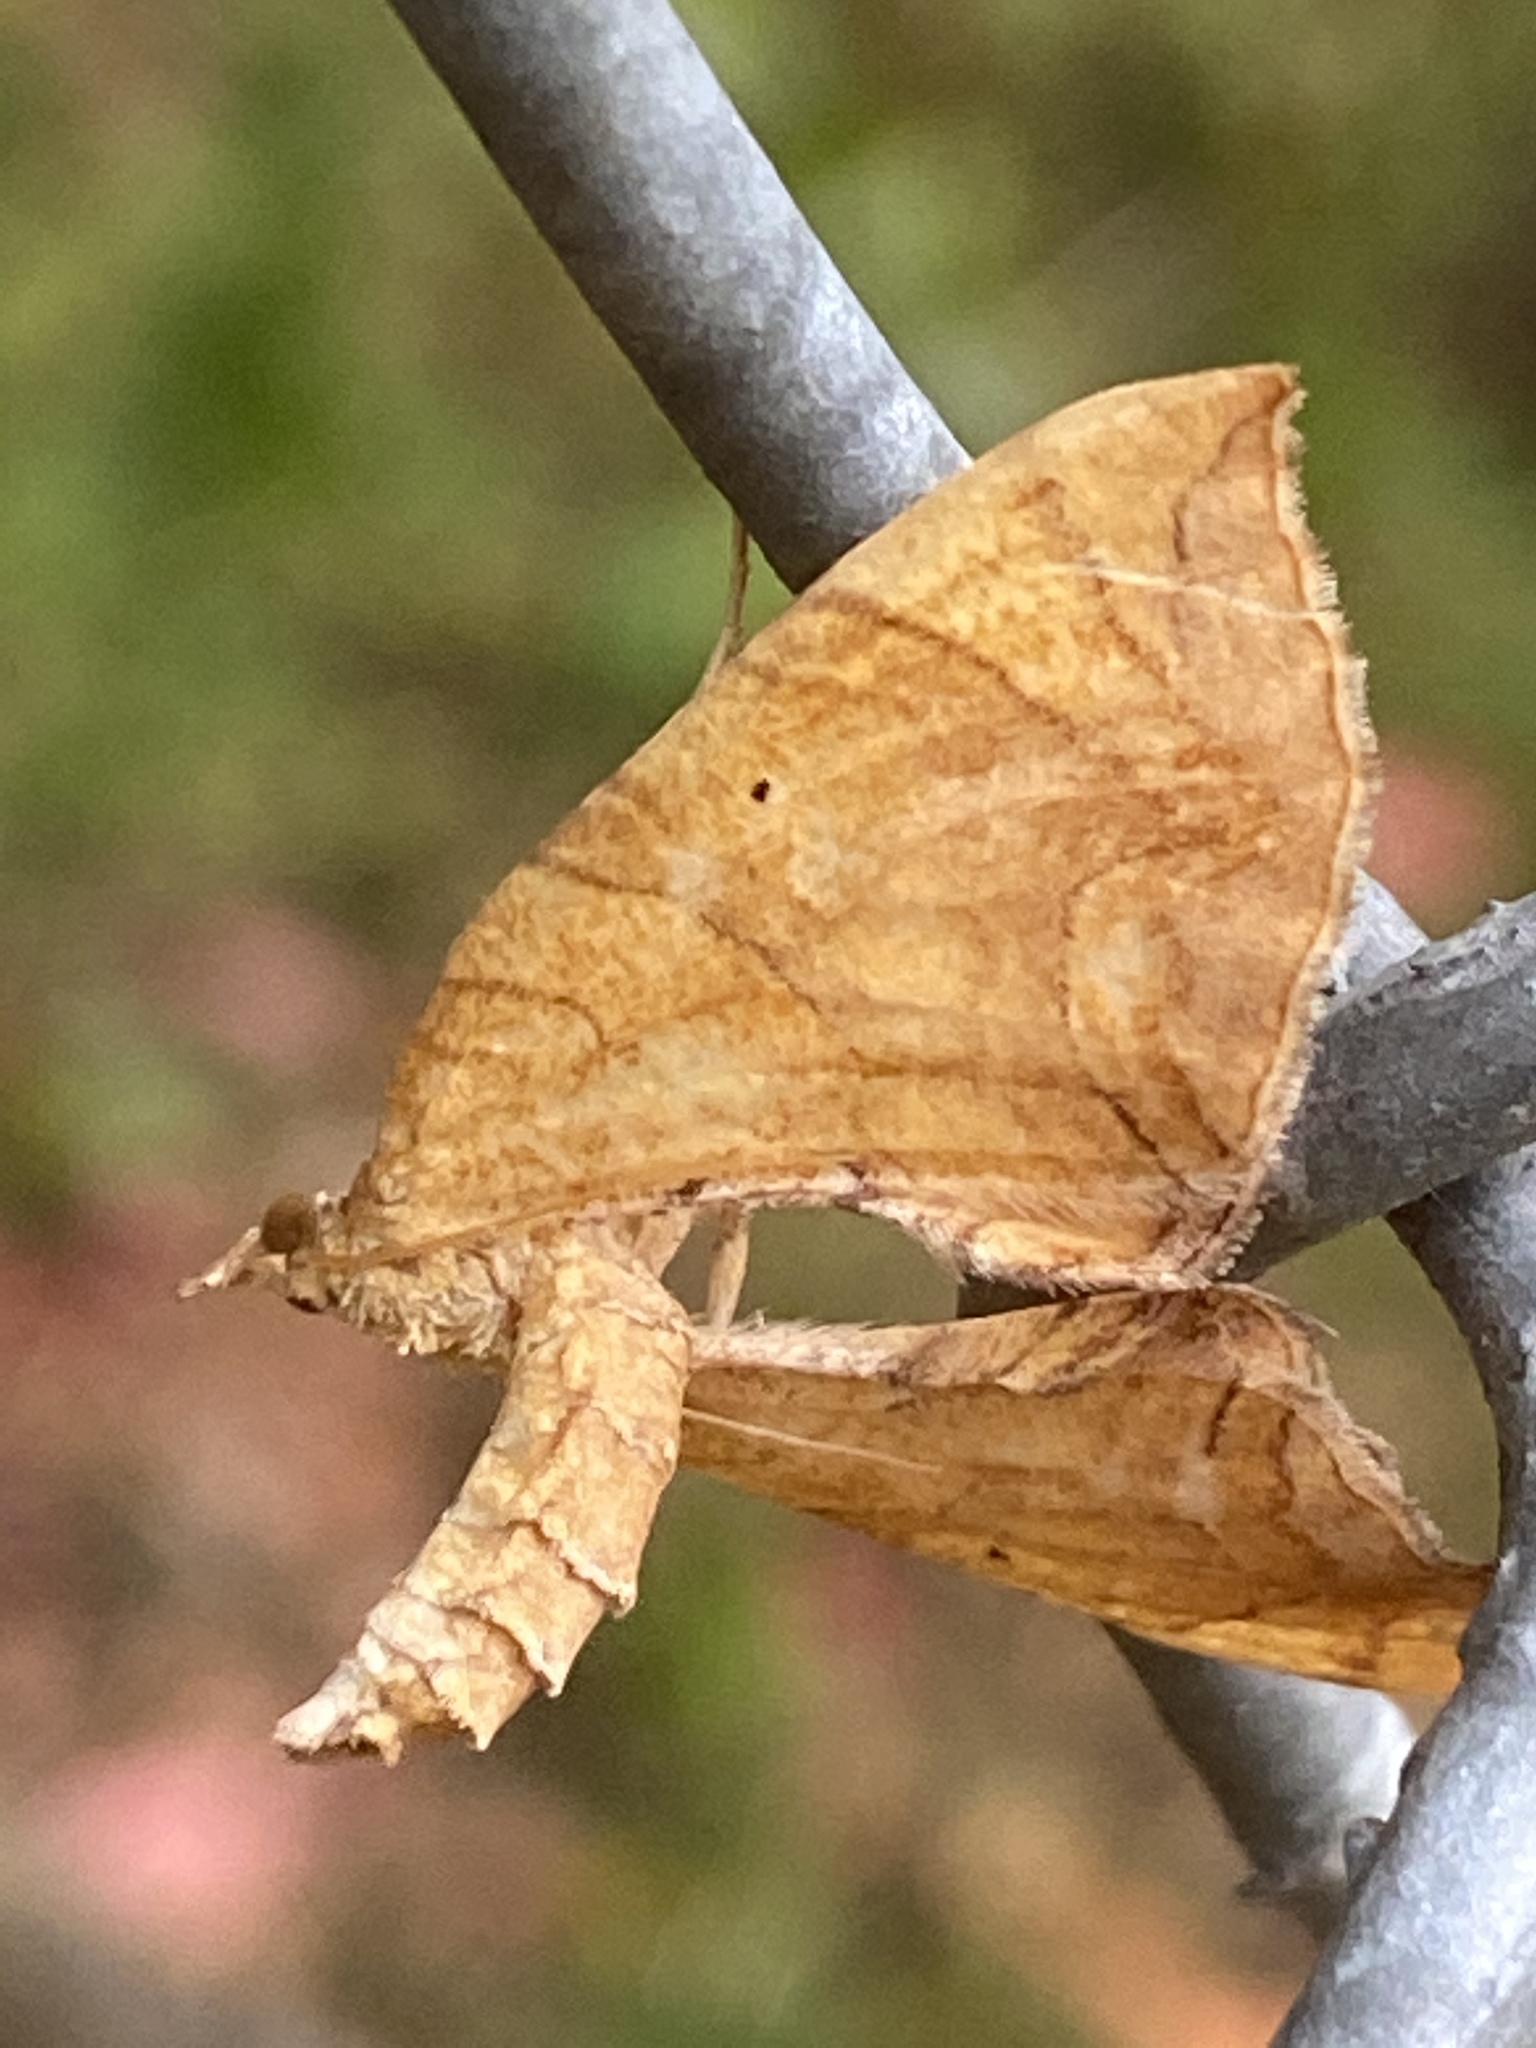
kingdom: Animalia
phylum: Arthropoda
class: Insecta
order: Lepidoptera
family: Geometridae
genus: Eulithis
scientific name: Eulithis
